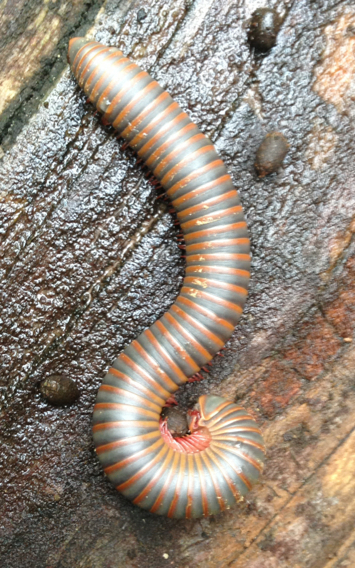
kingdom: Animalia
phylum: Arthropoda
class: Diplopoda
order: Spirobolida
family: Spirobolidae
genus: Narceus
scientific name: Narceus
